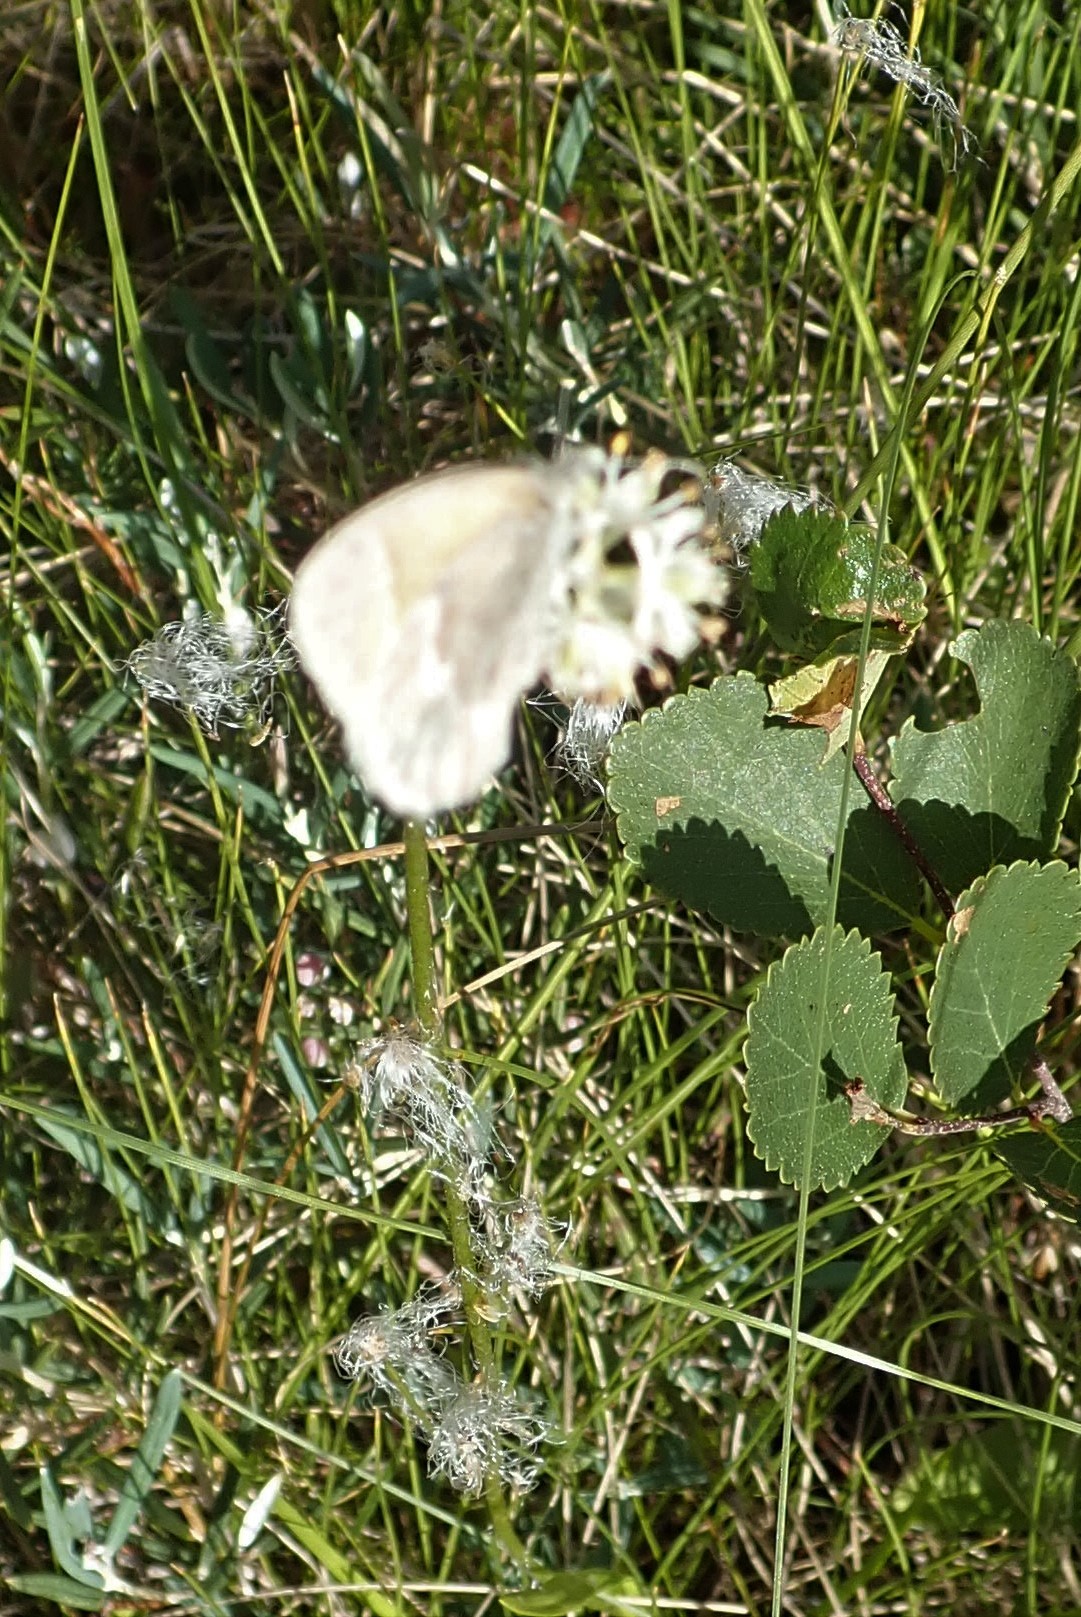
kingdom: Animalia
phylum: Arthropoda
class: Insecta
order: Lepidoptera
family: Nymphalidae
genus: Coenonympha
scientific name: Coenonympha california
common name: Common ringlet
